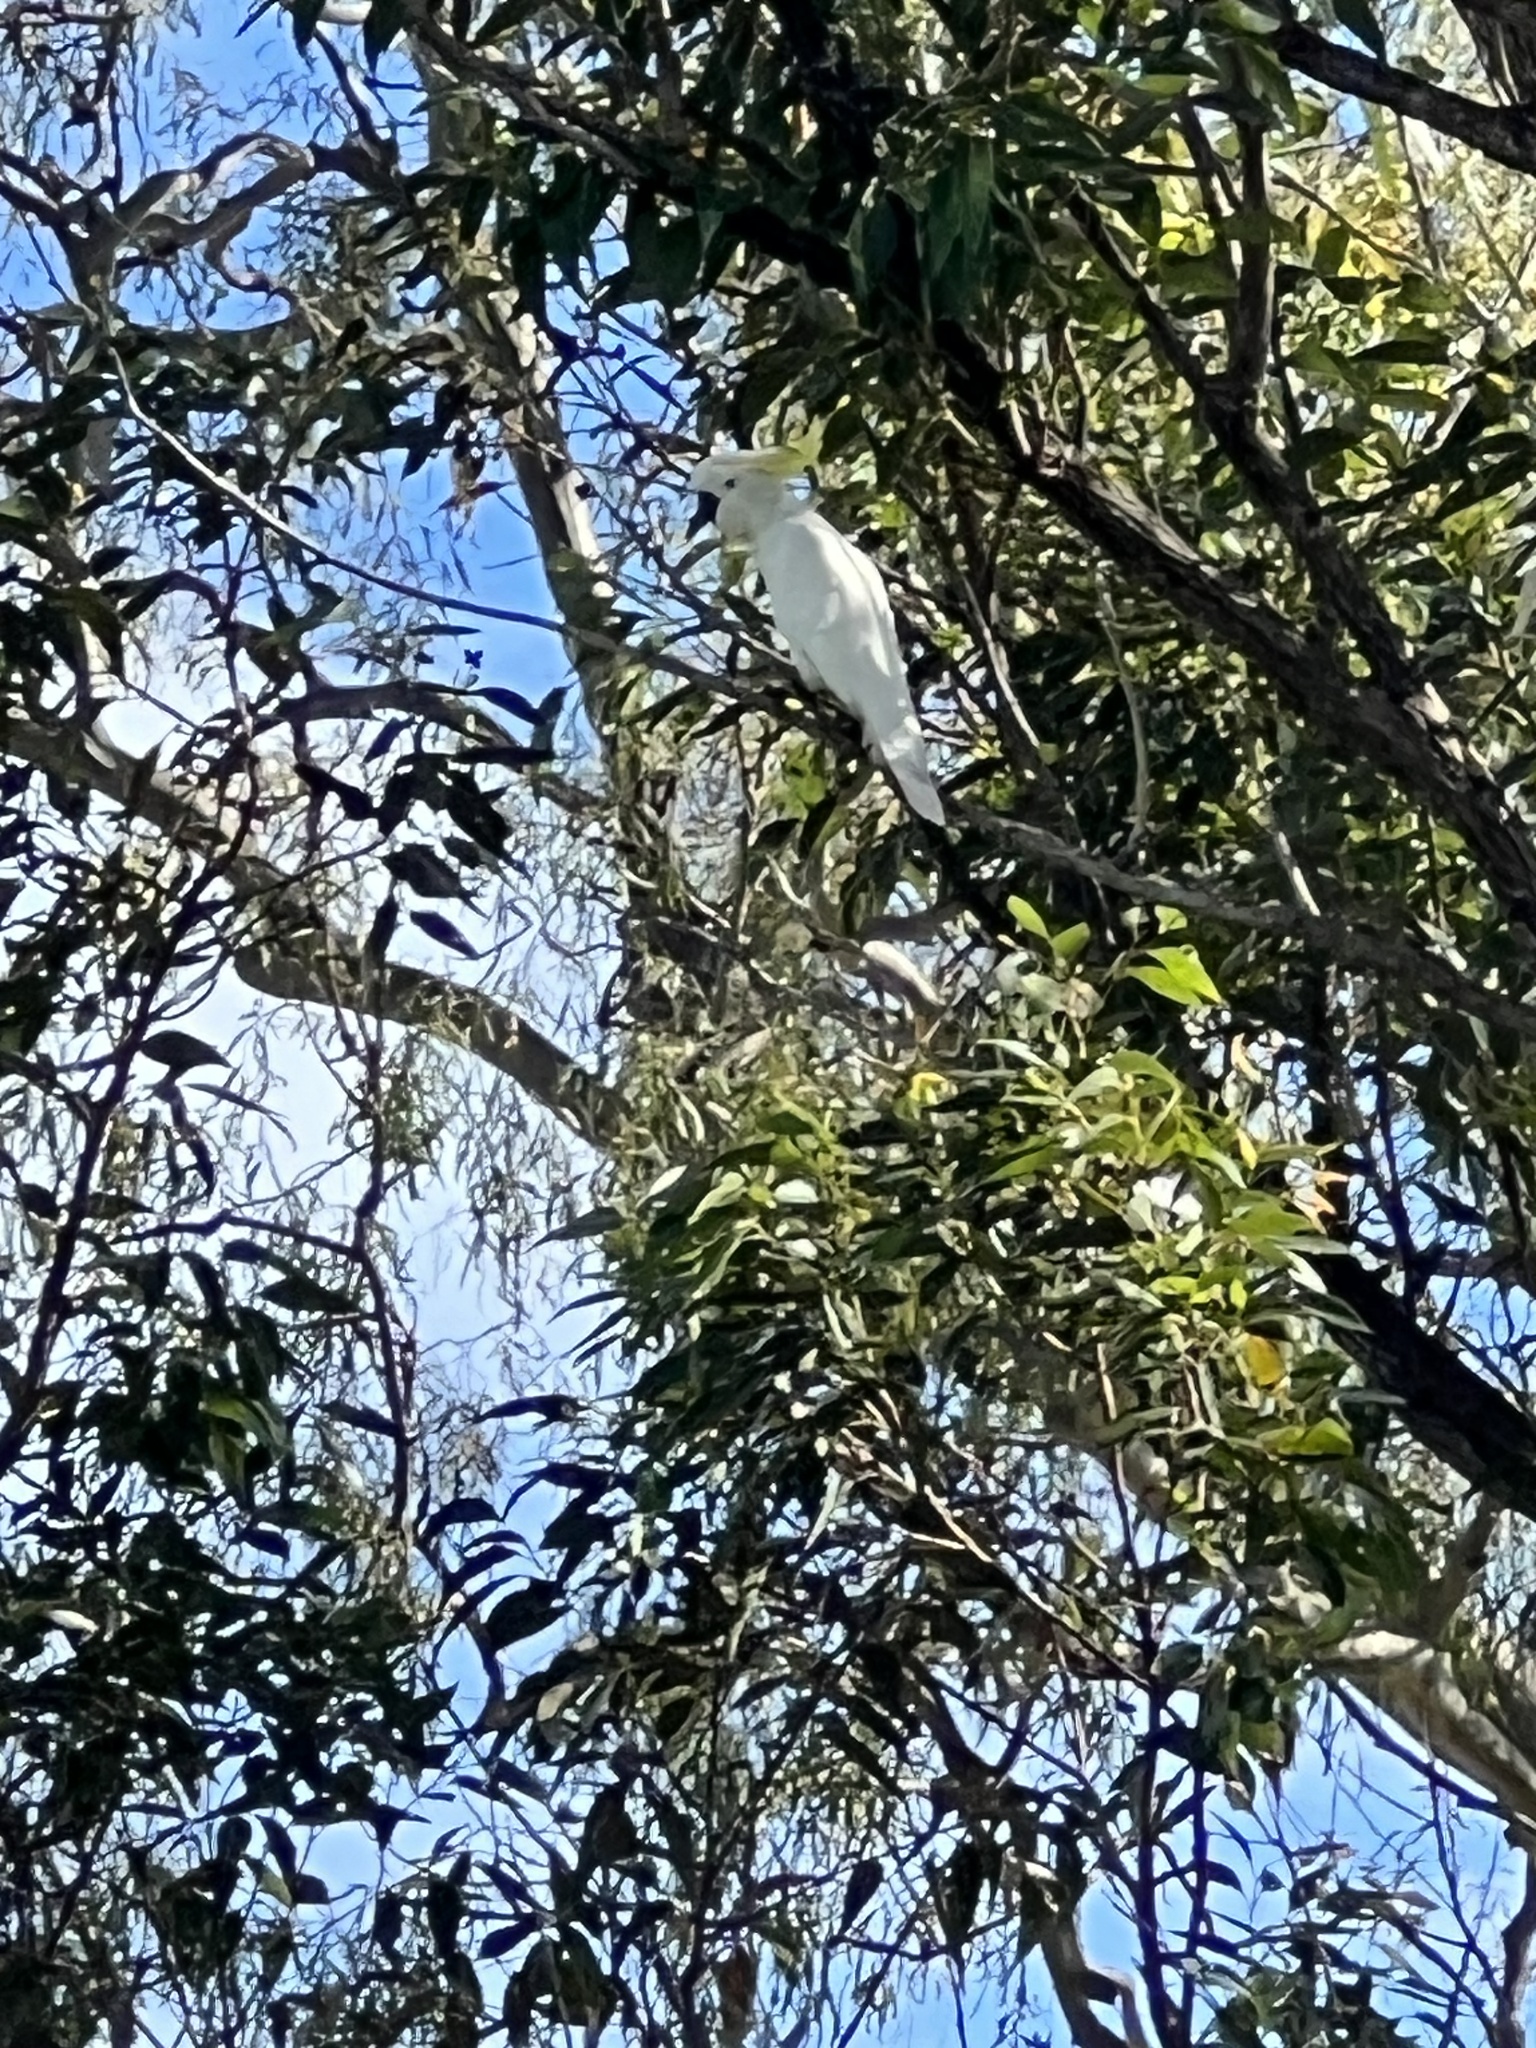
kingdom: Animalia
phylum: Chordata
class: Aves
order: Psittaciformes
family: Psittacidae
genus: Cacatua
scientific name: Cacatua galerita
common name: Sulphur-crested cockatoo
